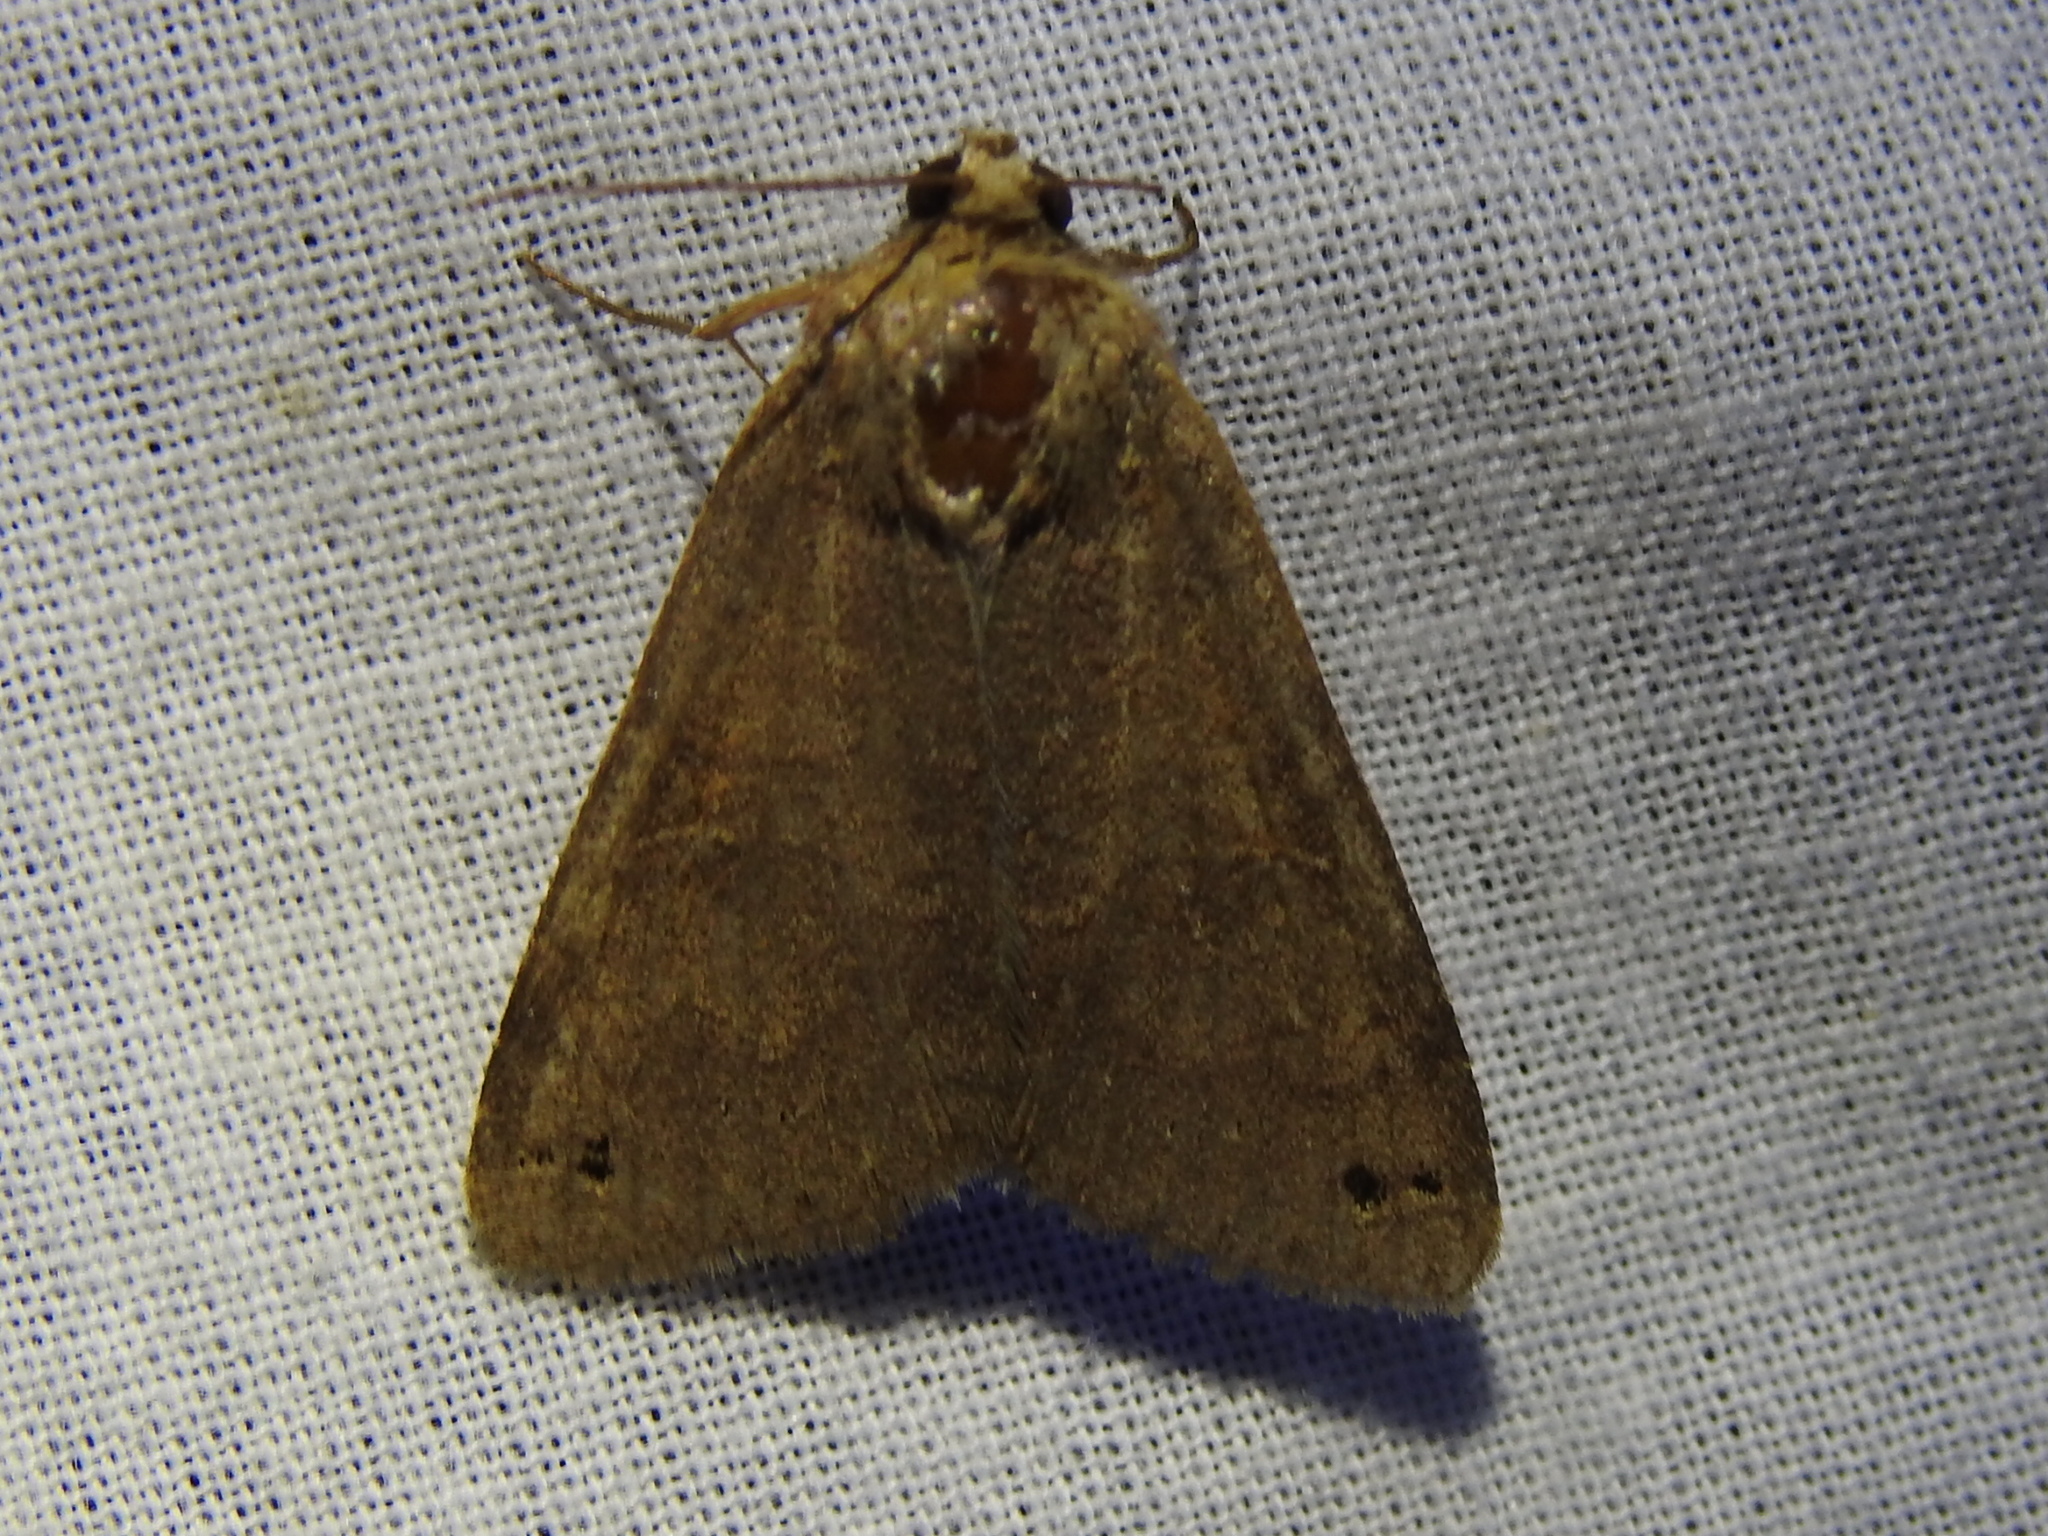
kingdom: Animalia
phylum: Arthropoda
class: Insecta
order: Lepidoptera
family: Erebidae
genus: Cissusa
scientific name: Cissusa spadix
